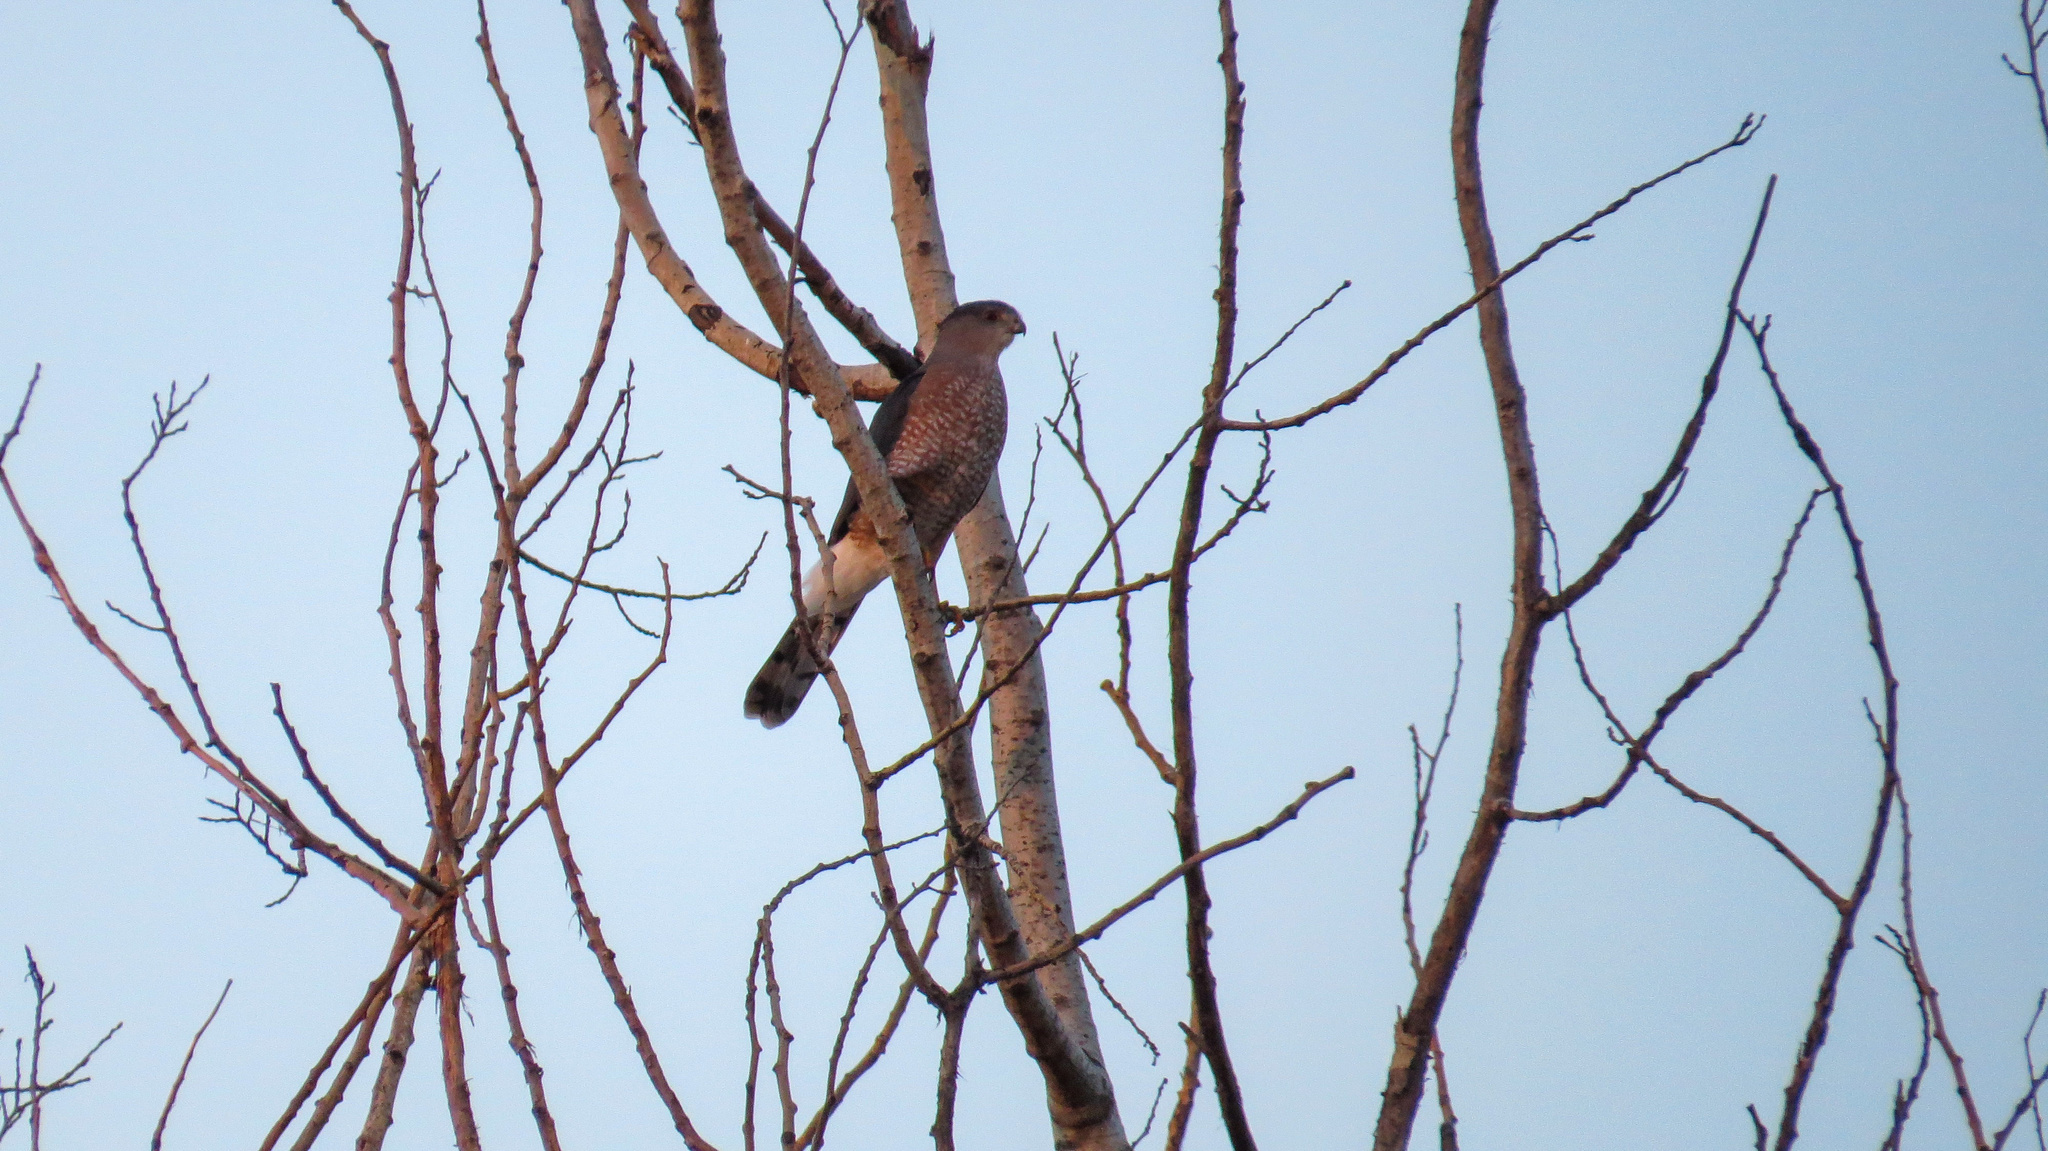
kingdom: Animalia
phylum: Chordata
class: Aves
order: Accipitriformes
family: Accipitridae
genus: Accipiter
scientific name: Accipiter cooperii
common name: Cooper's hawk
